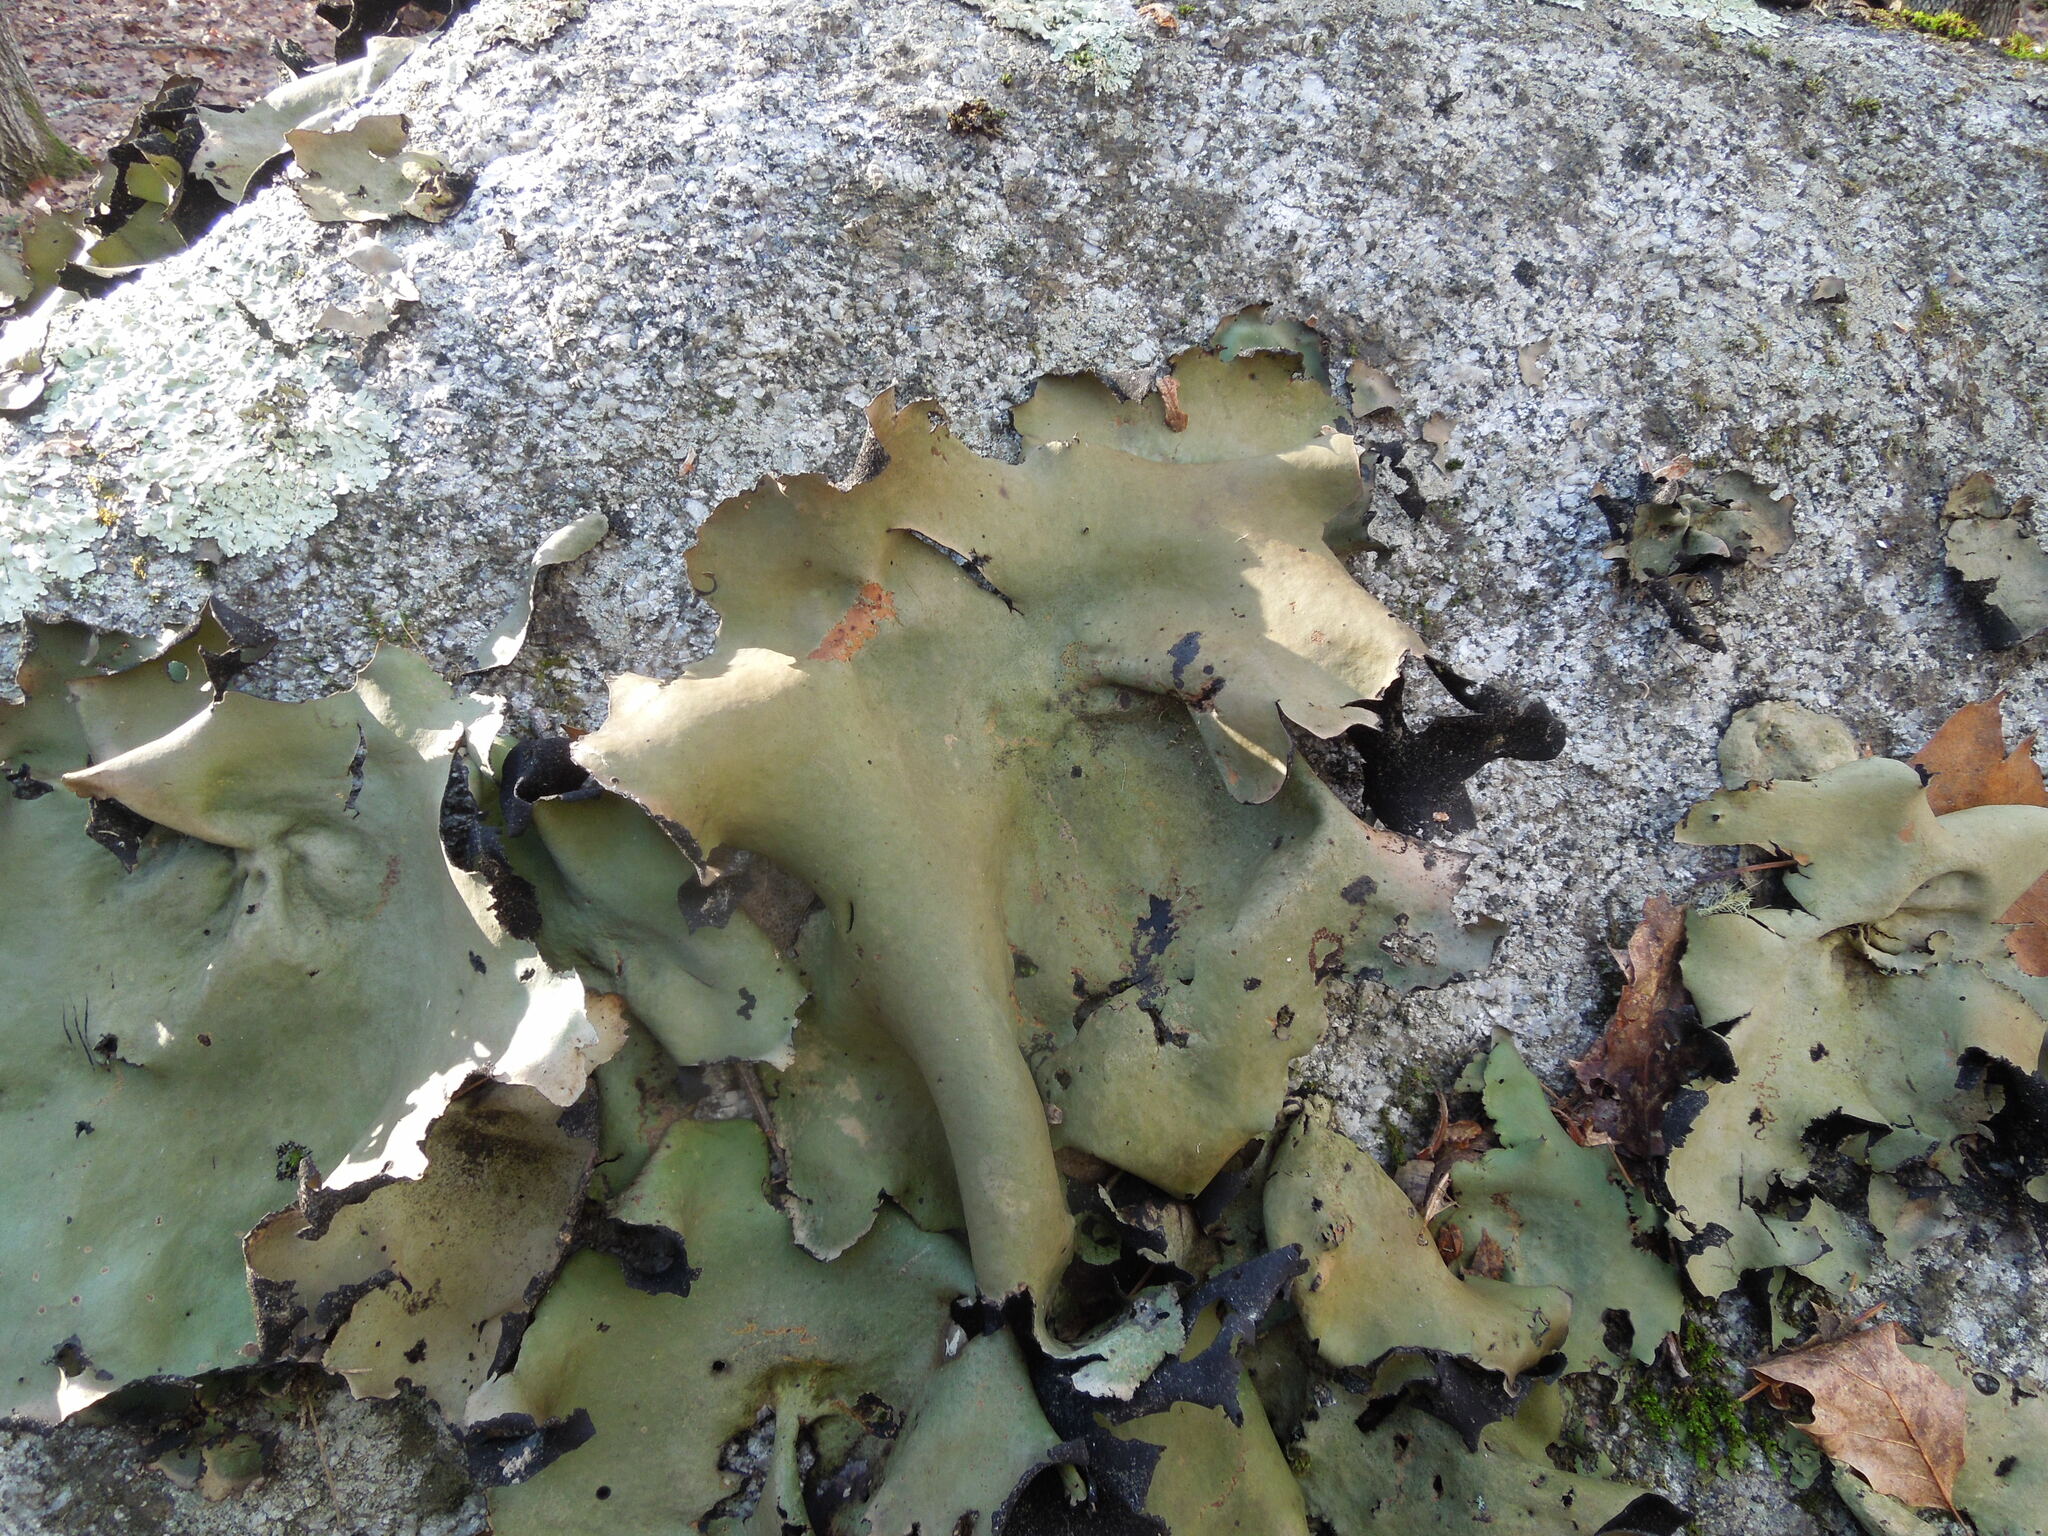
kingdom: Fungi
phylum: Ascomycota
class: Lecanoromycetes
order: Umbilicariales
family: Umbilicariaceae
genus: Umbilicaria
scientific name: Umbilicaria mammulata
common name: Smooth rock tripe
